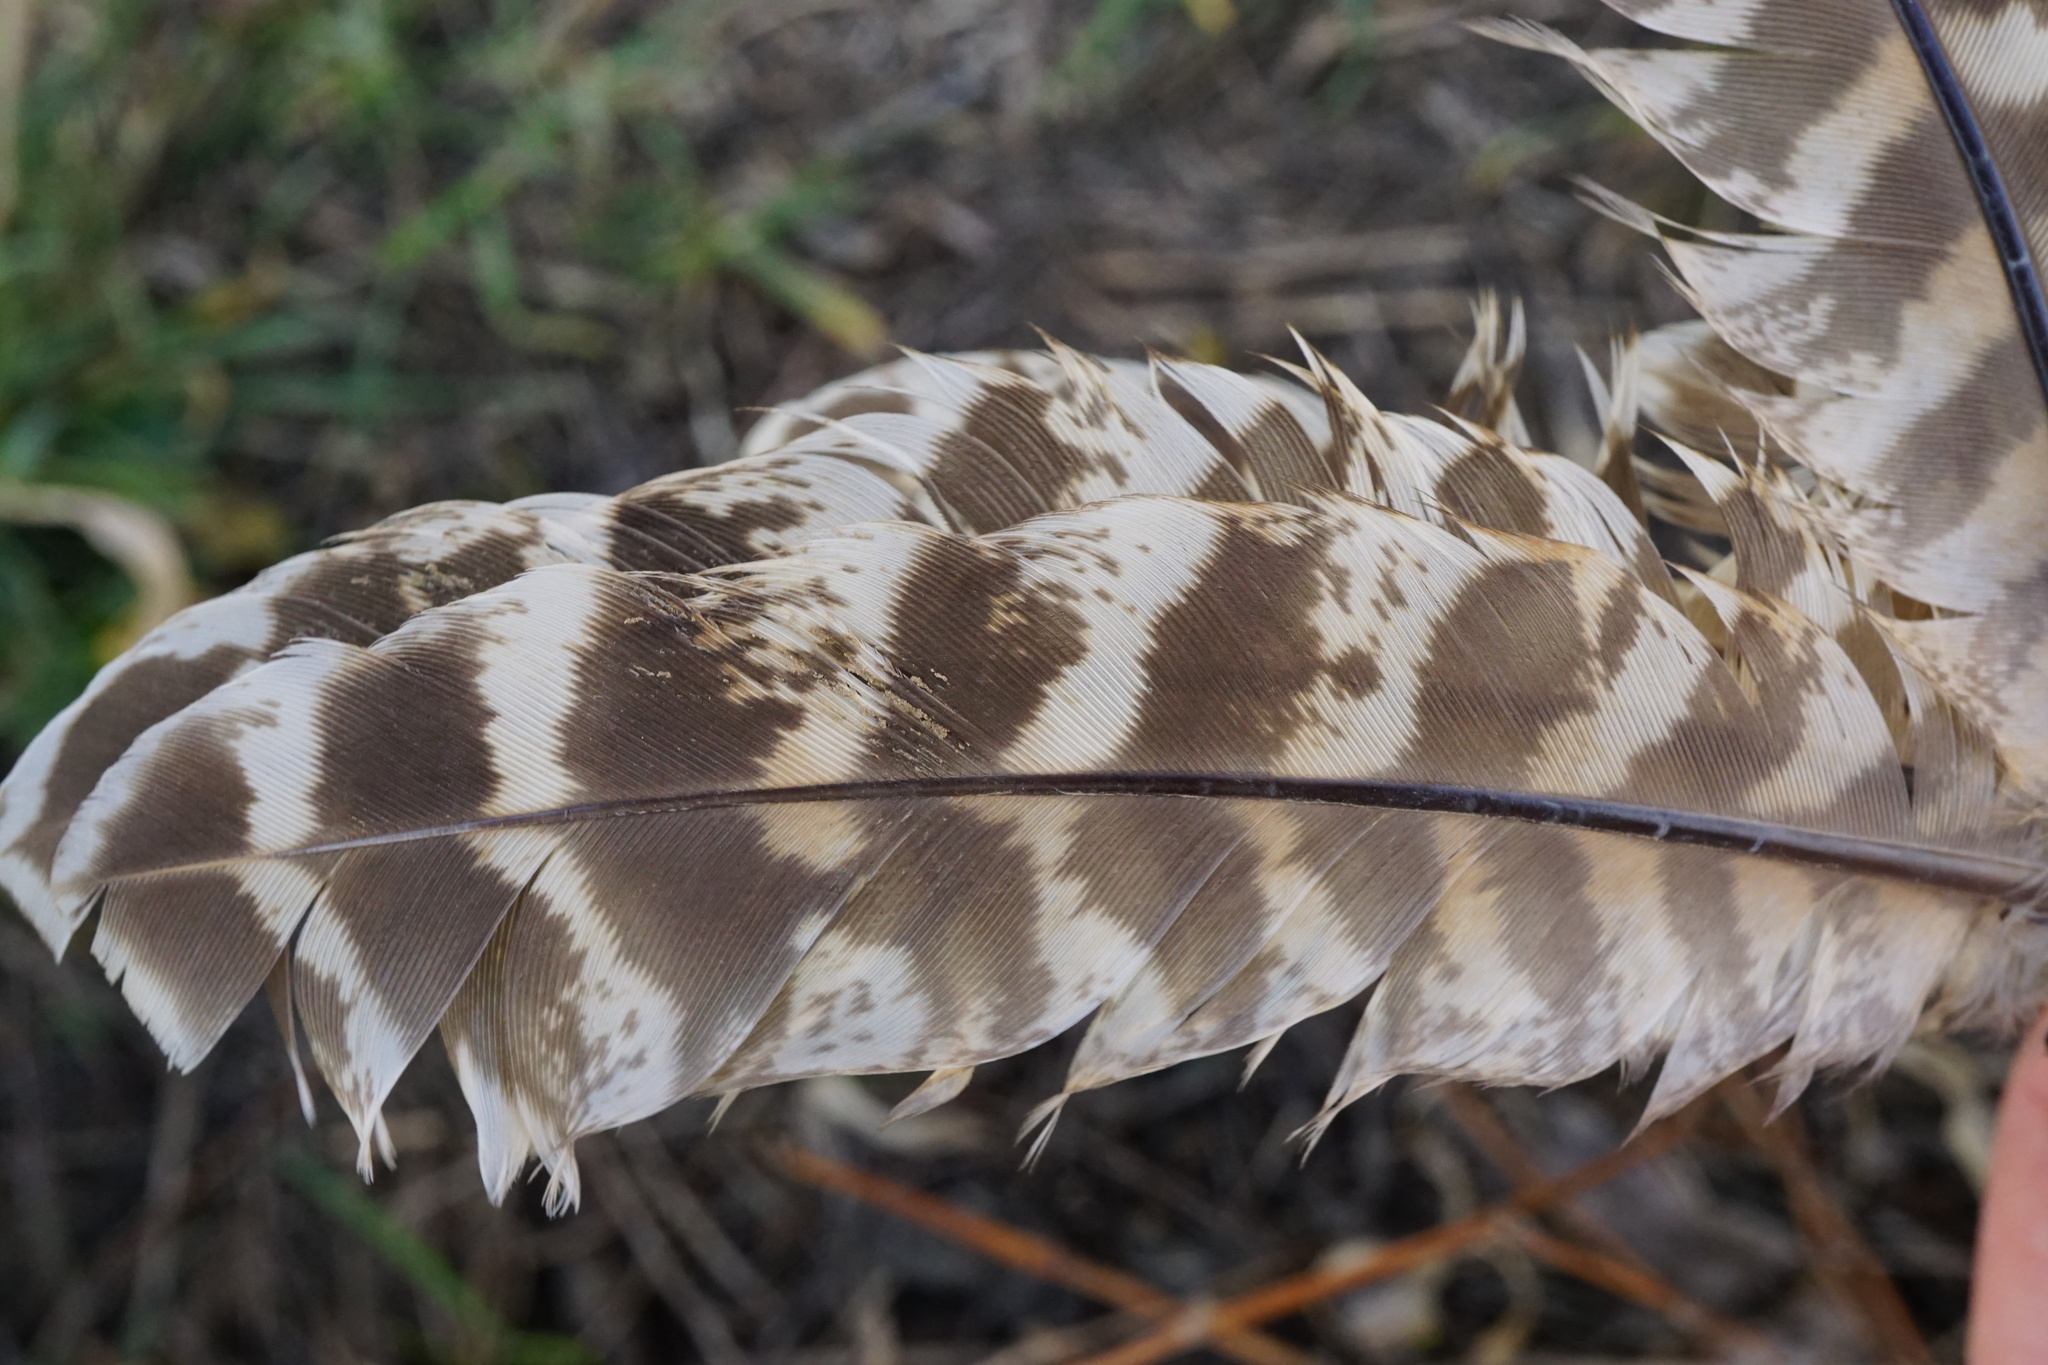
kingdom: Animalia
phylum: Chordata
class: Aves
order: Galliformes
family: Phasianidae
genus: Phasianus
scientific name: Phasianus colchicus
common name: Common pheasant
